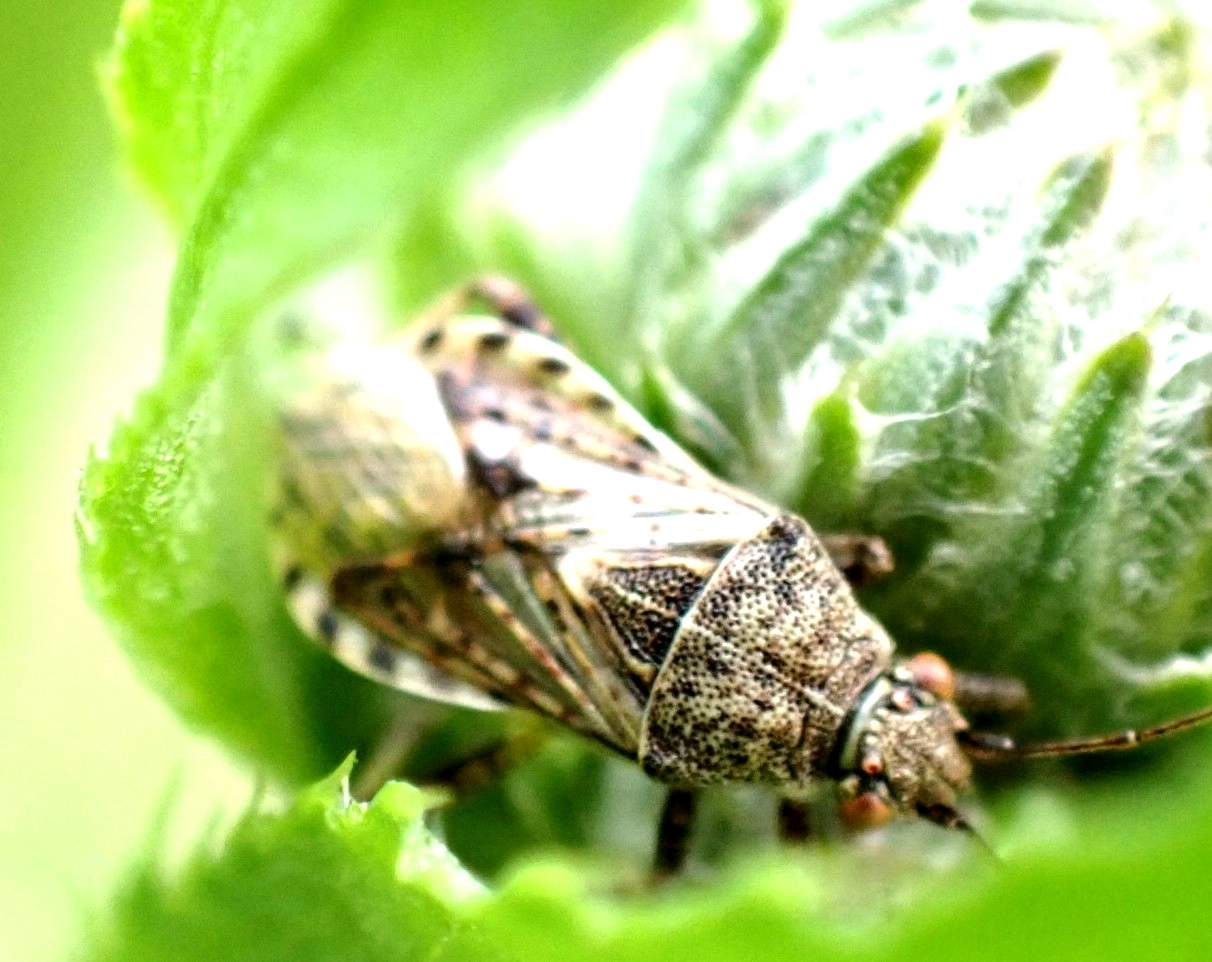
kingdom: Animalia
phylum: Arthropoda
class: Insecta
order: Hemiptera
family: Rhopalidae
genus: Stictopleurus
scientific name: Stictopleurus punctatonervosus
